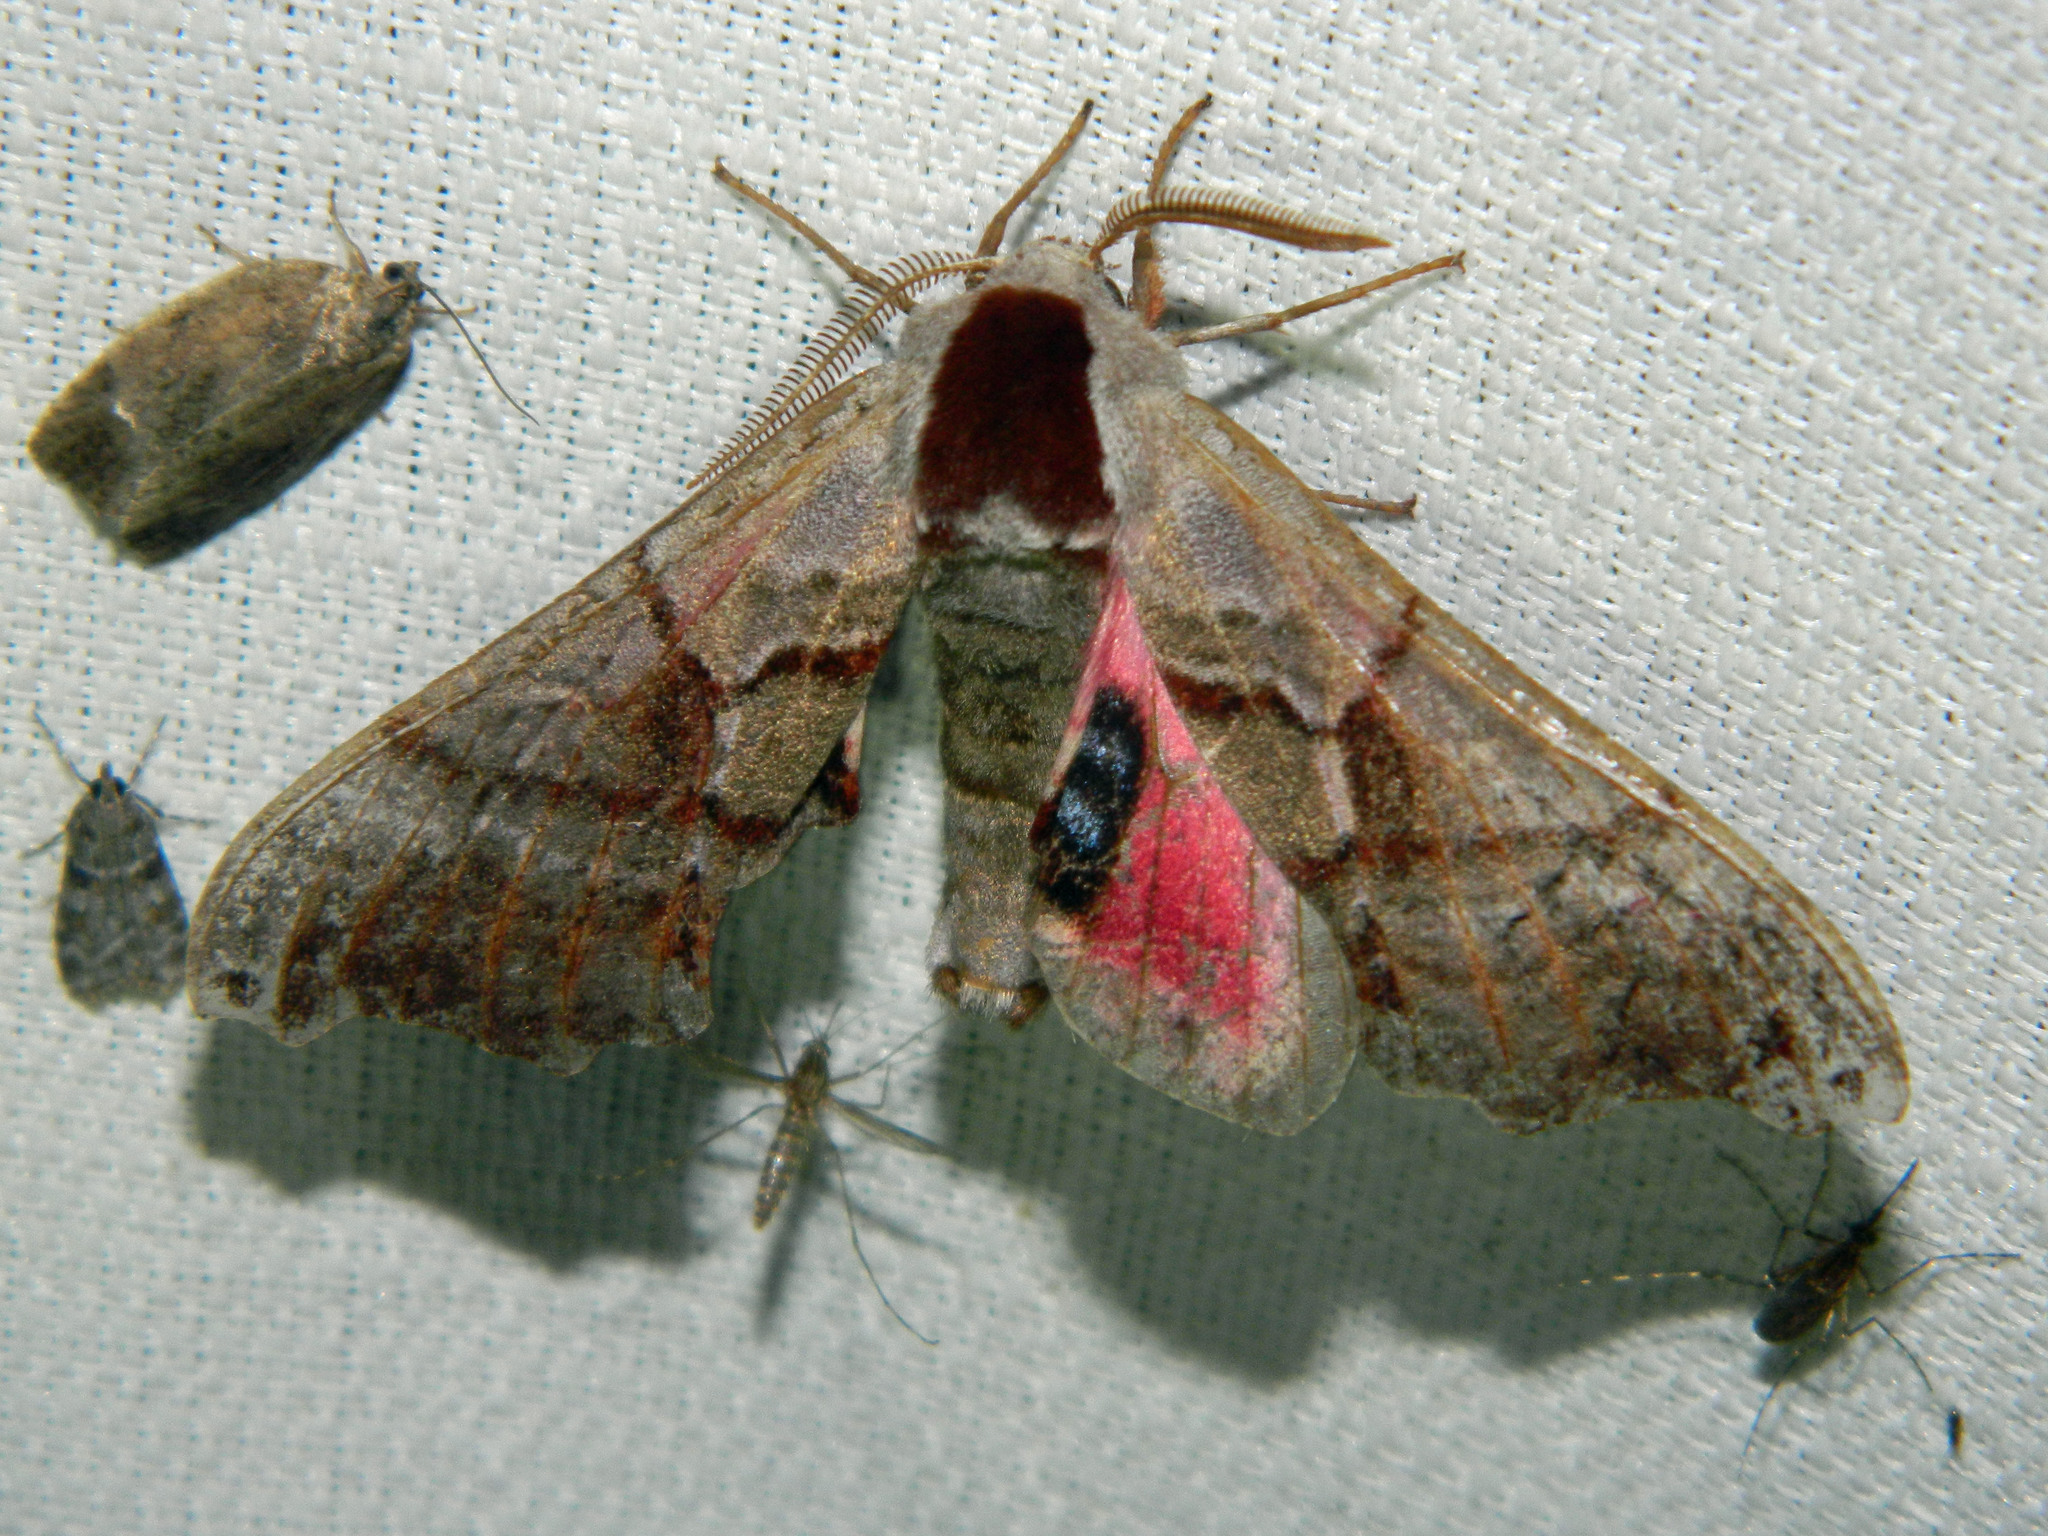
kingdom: Animalia
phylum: Arthropoda
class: Insecta
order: Lepidoptera
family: Sphingidae
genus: Smerinthus
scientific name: Smerinthus jamaicensis
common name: Twin spotted sphinx
